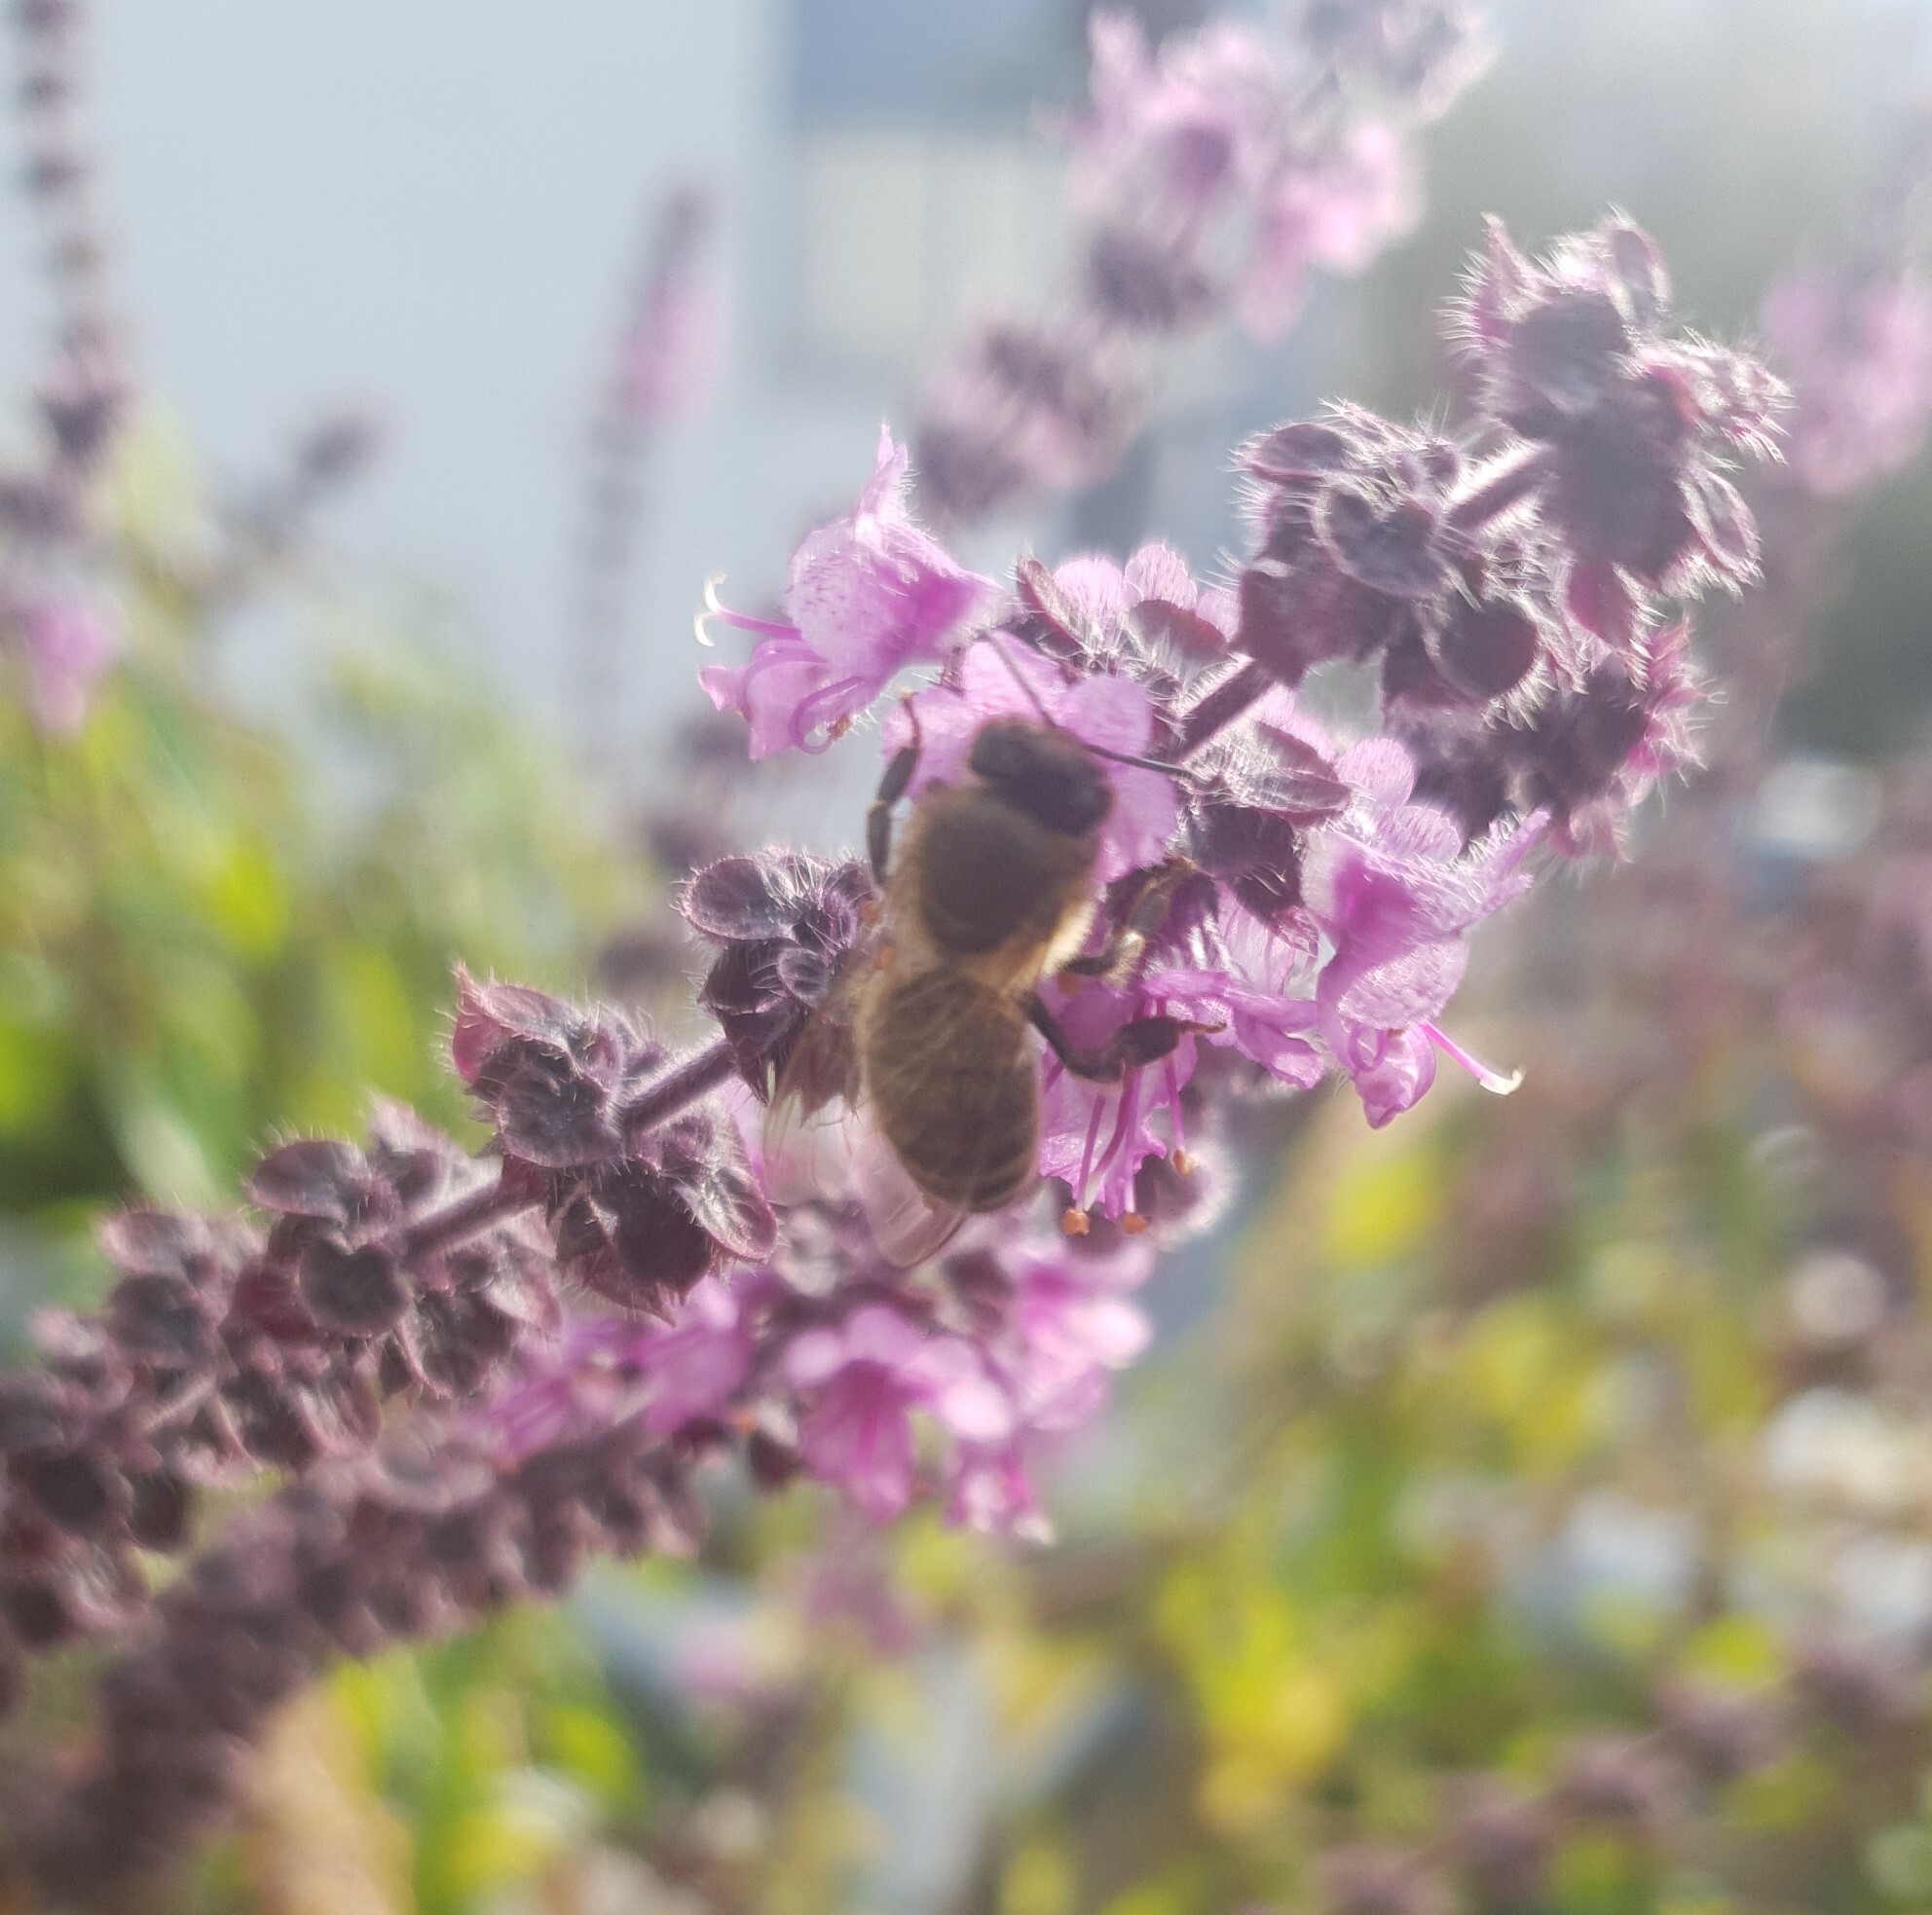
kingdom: Animalia
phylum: Arthropoda
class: Insecta
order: Hymenoptera
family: Apidae
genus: Apis
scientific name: Apis mellifera
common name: Honey bee
